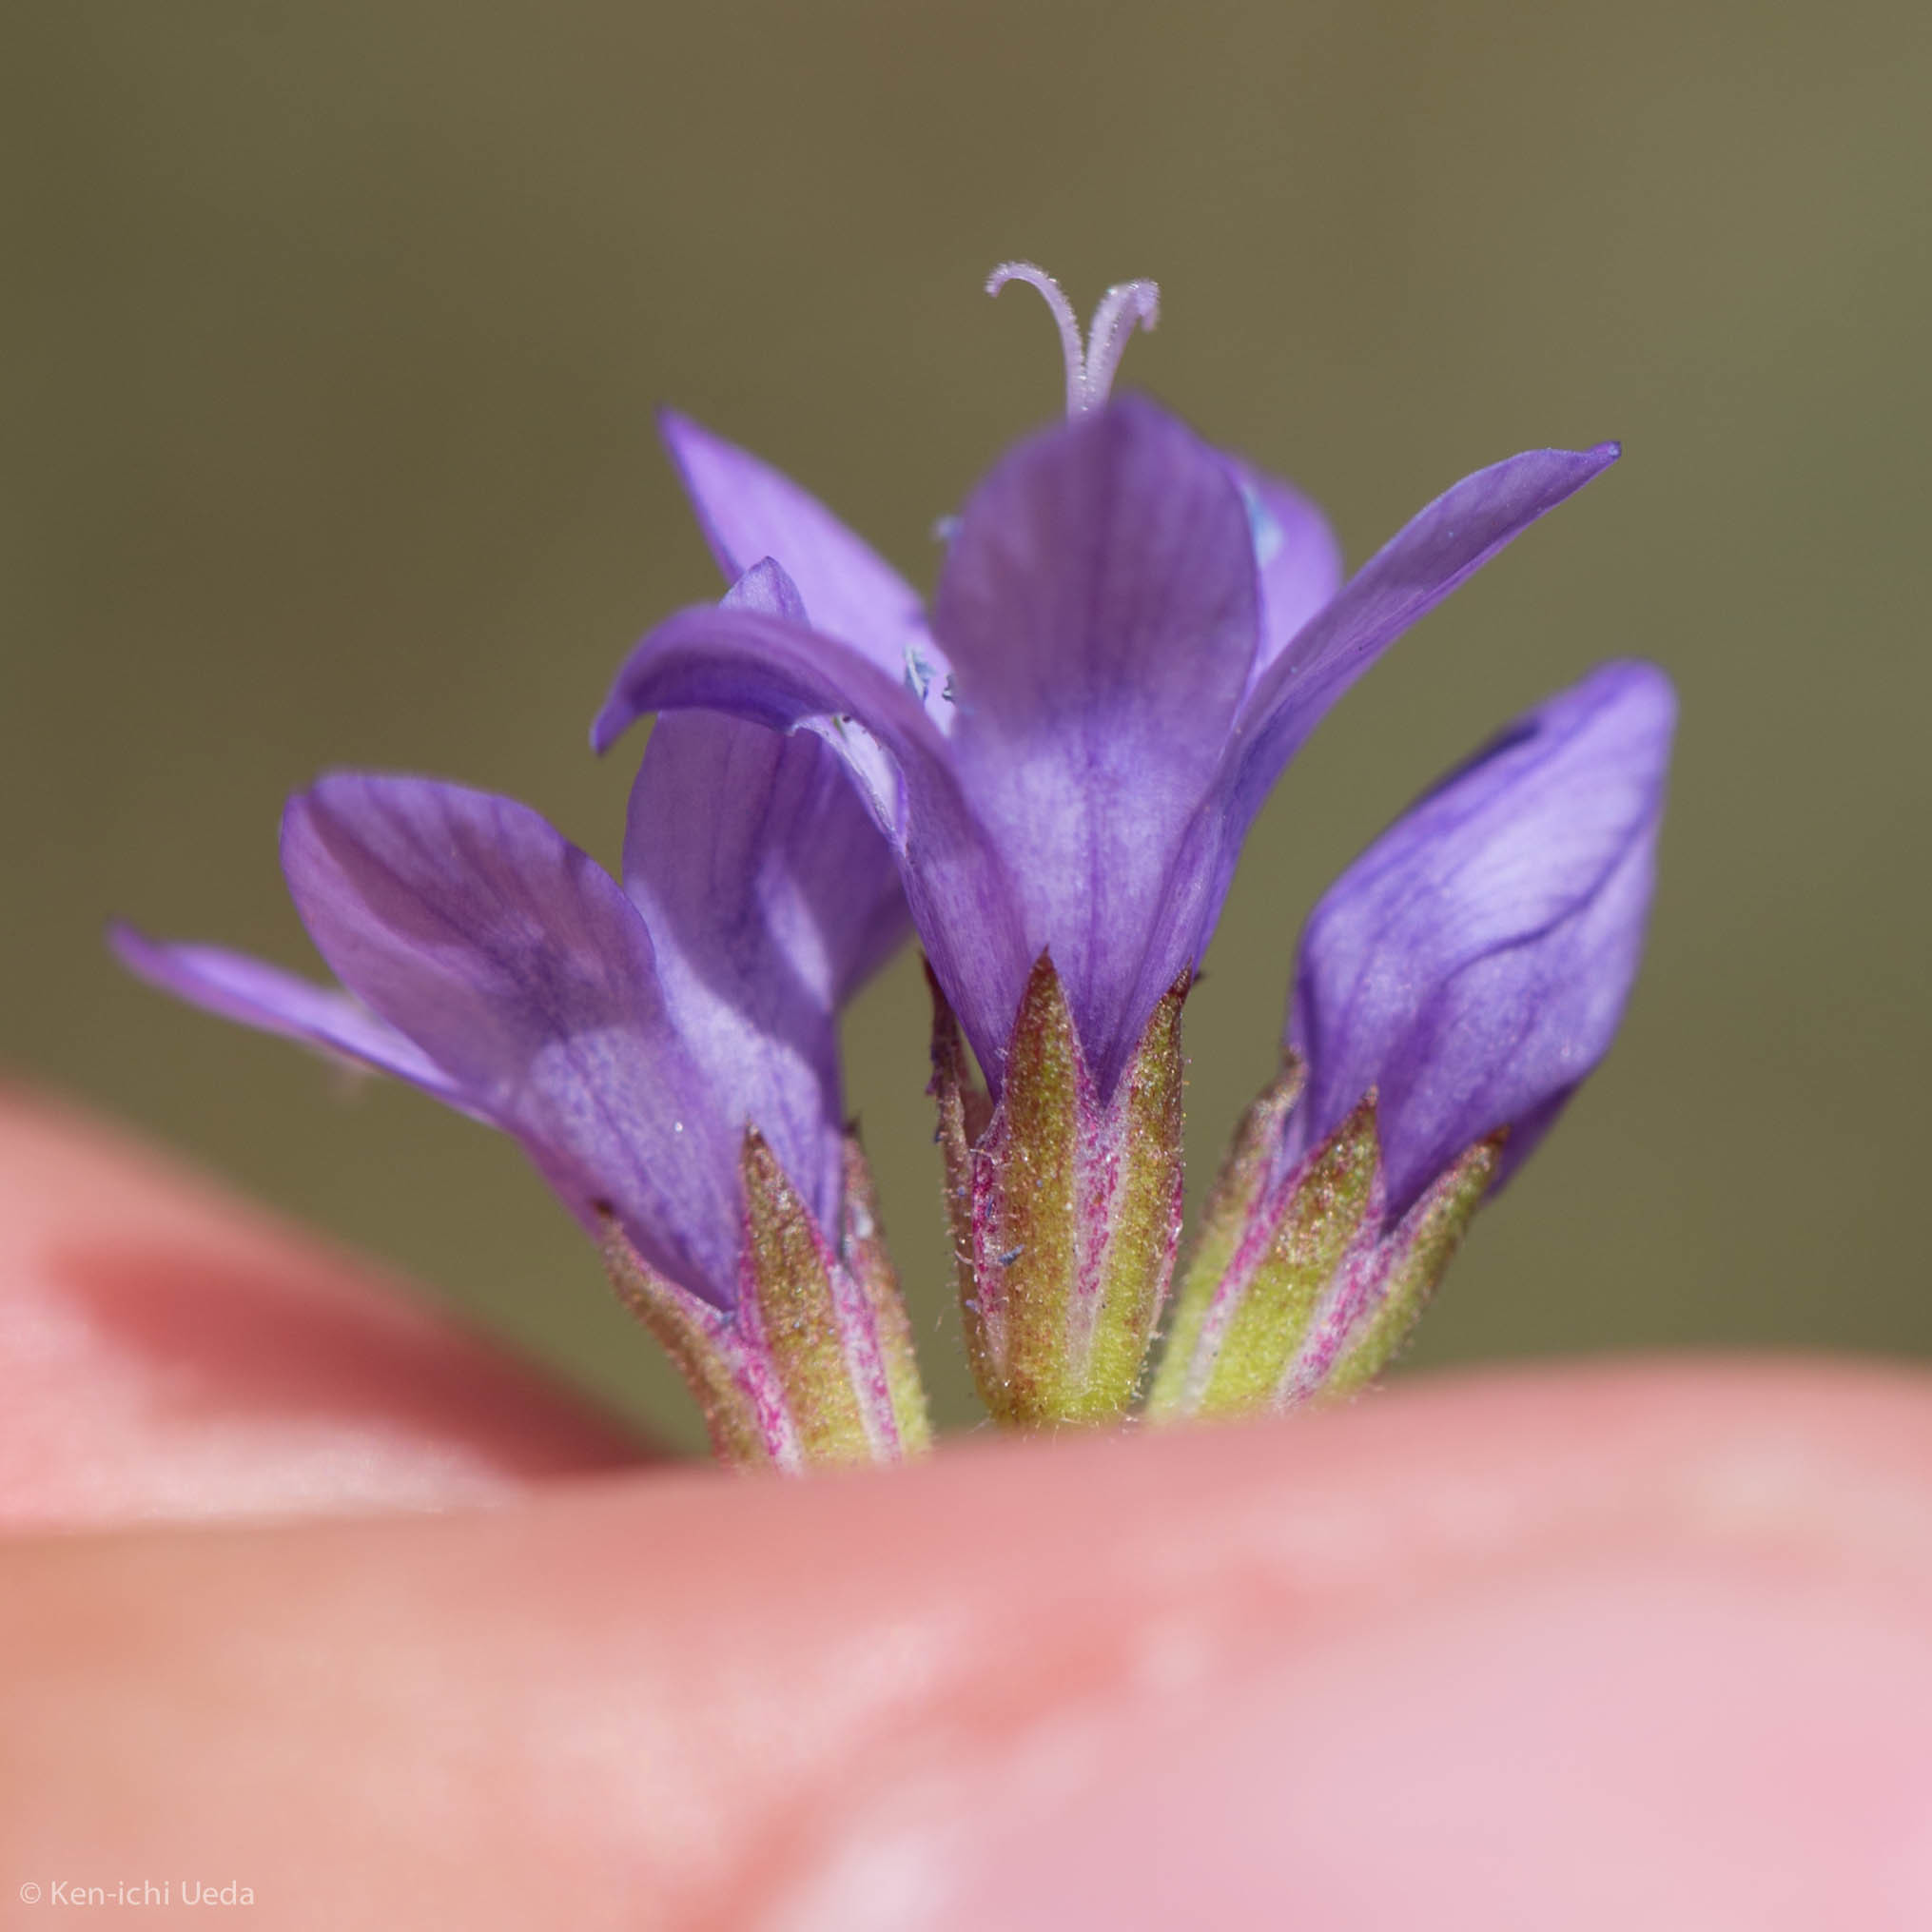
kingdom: Plantae
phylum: Tracheophyta
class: Magnoliopsida
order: Ericales
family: Polemoniaceae
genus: Gilia
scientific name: Gilia achilleifolia
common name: California gily-flower
